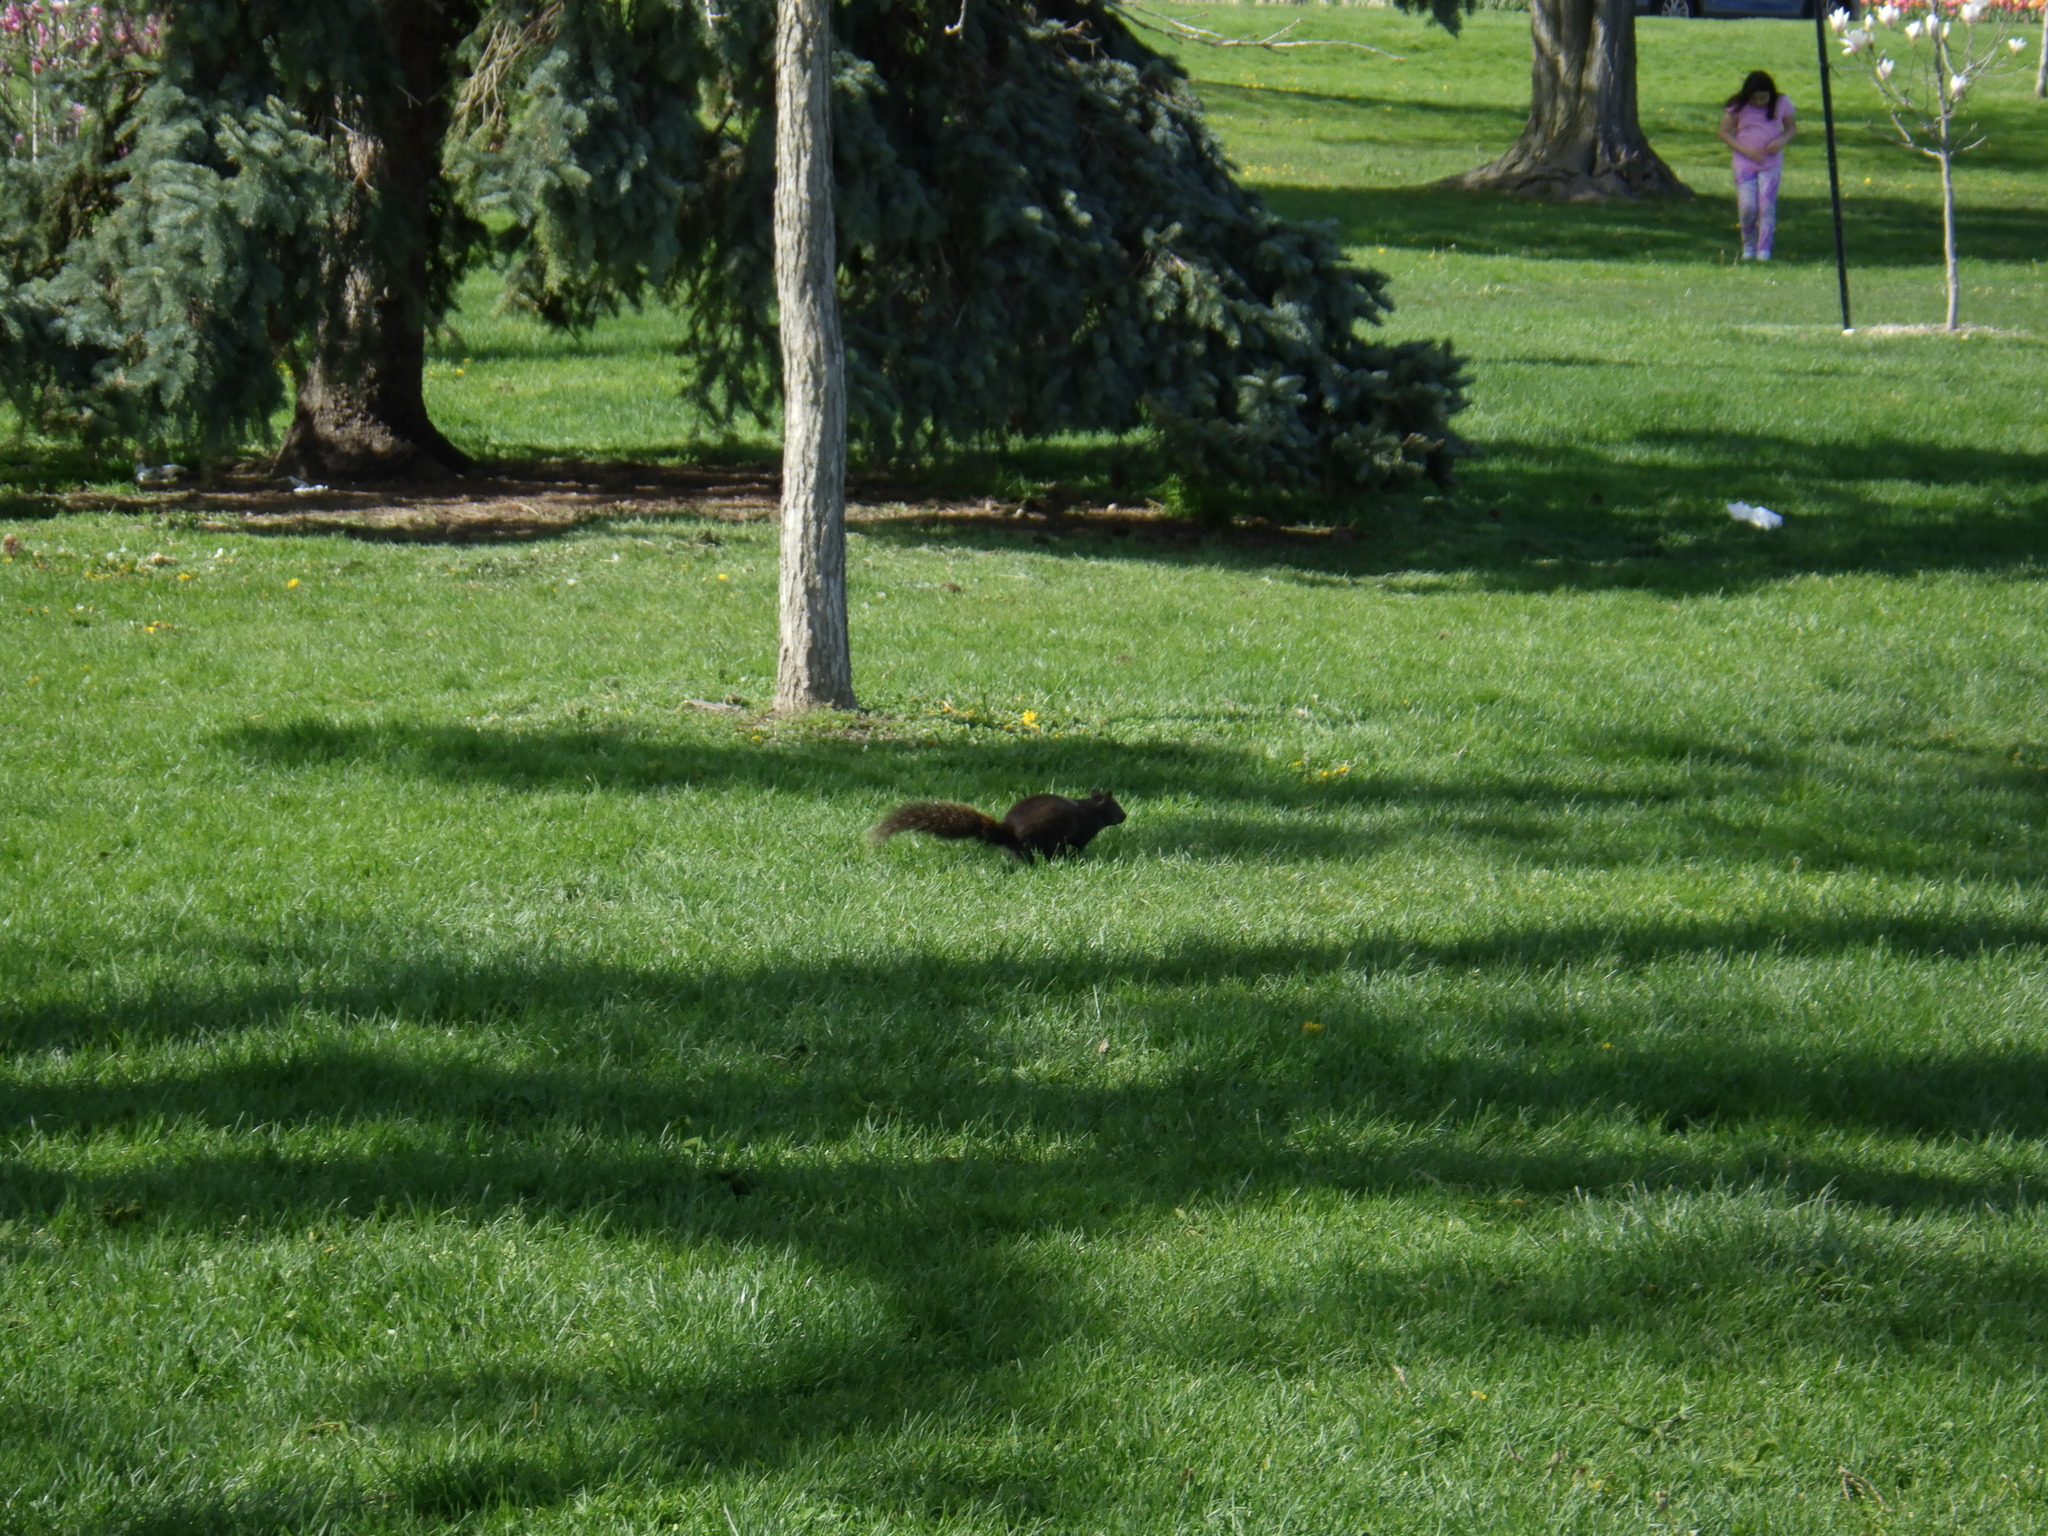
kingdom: Animalia
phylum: Chordata
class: Mammalia
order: Rodentia
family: Sciuridae
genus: Sciurus
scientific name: Sciurus carolinensis
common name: Eastern gray squirrel
